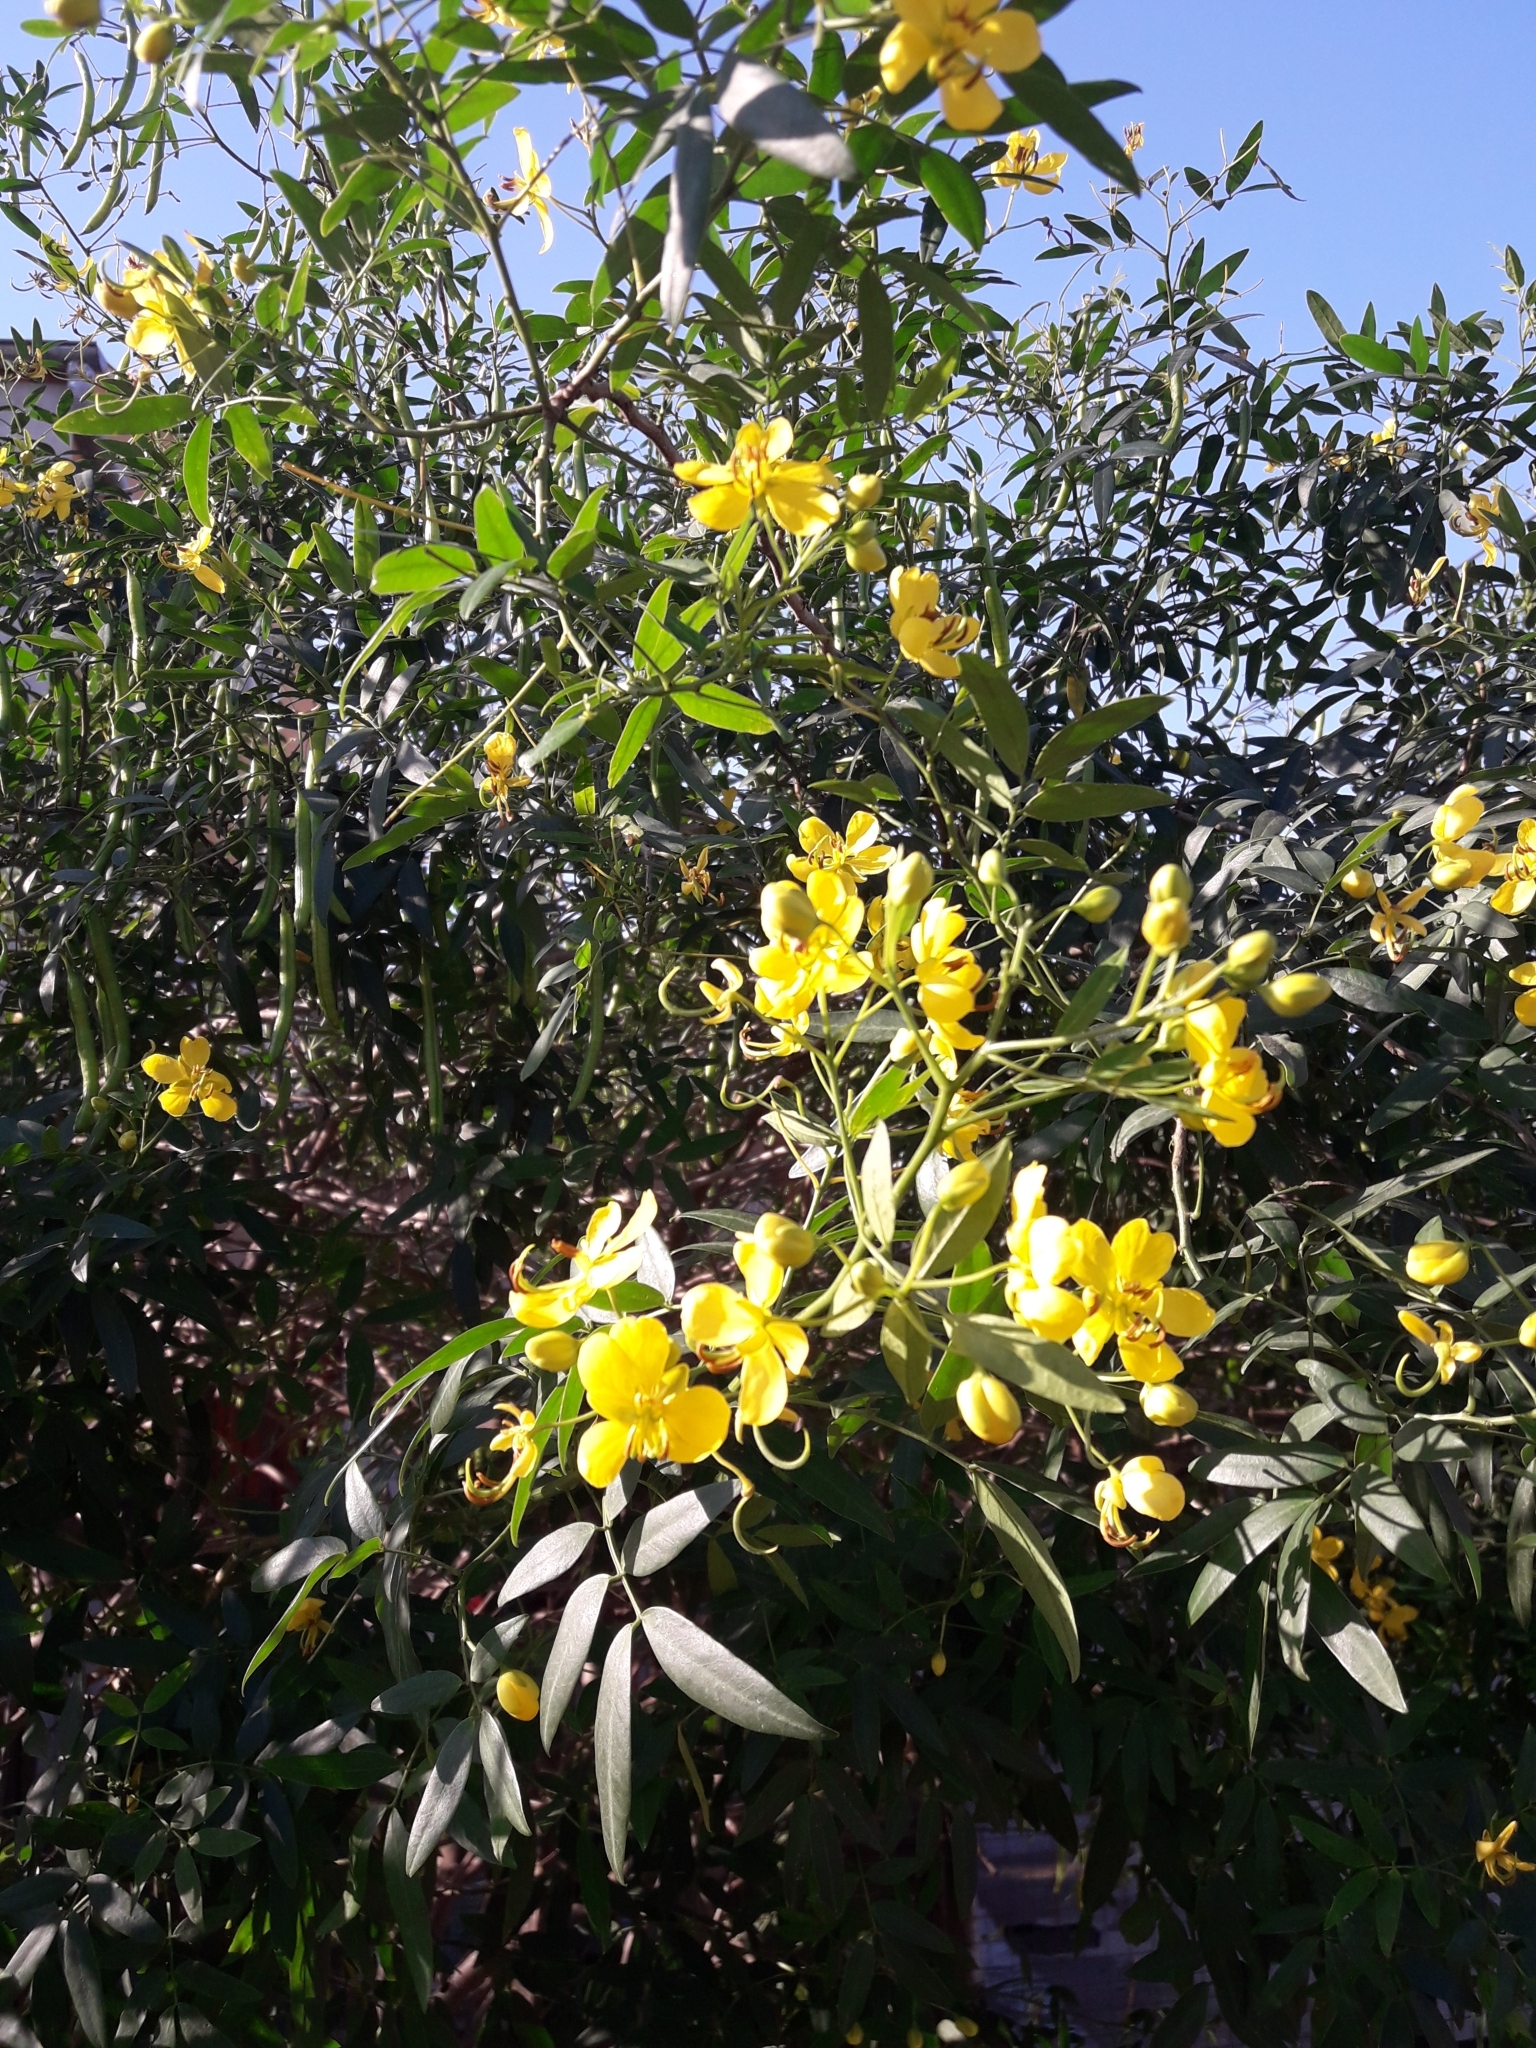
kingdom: Plantae
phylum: Tracheophyta
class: Magnoliopsida
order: Fabales
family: Fabaceae
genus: Senna
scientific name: Senna corymbosa
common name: Argentine senna
